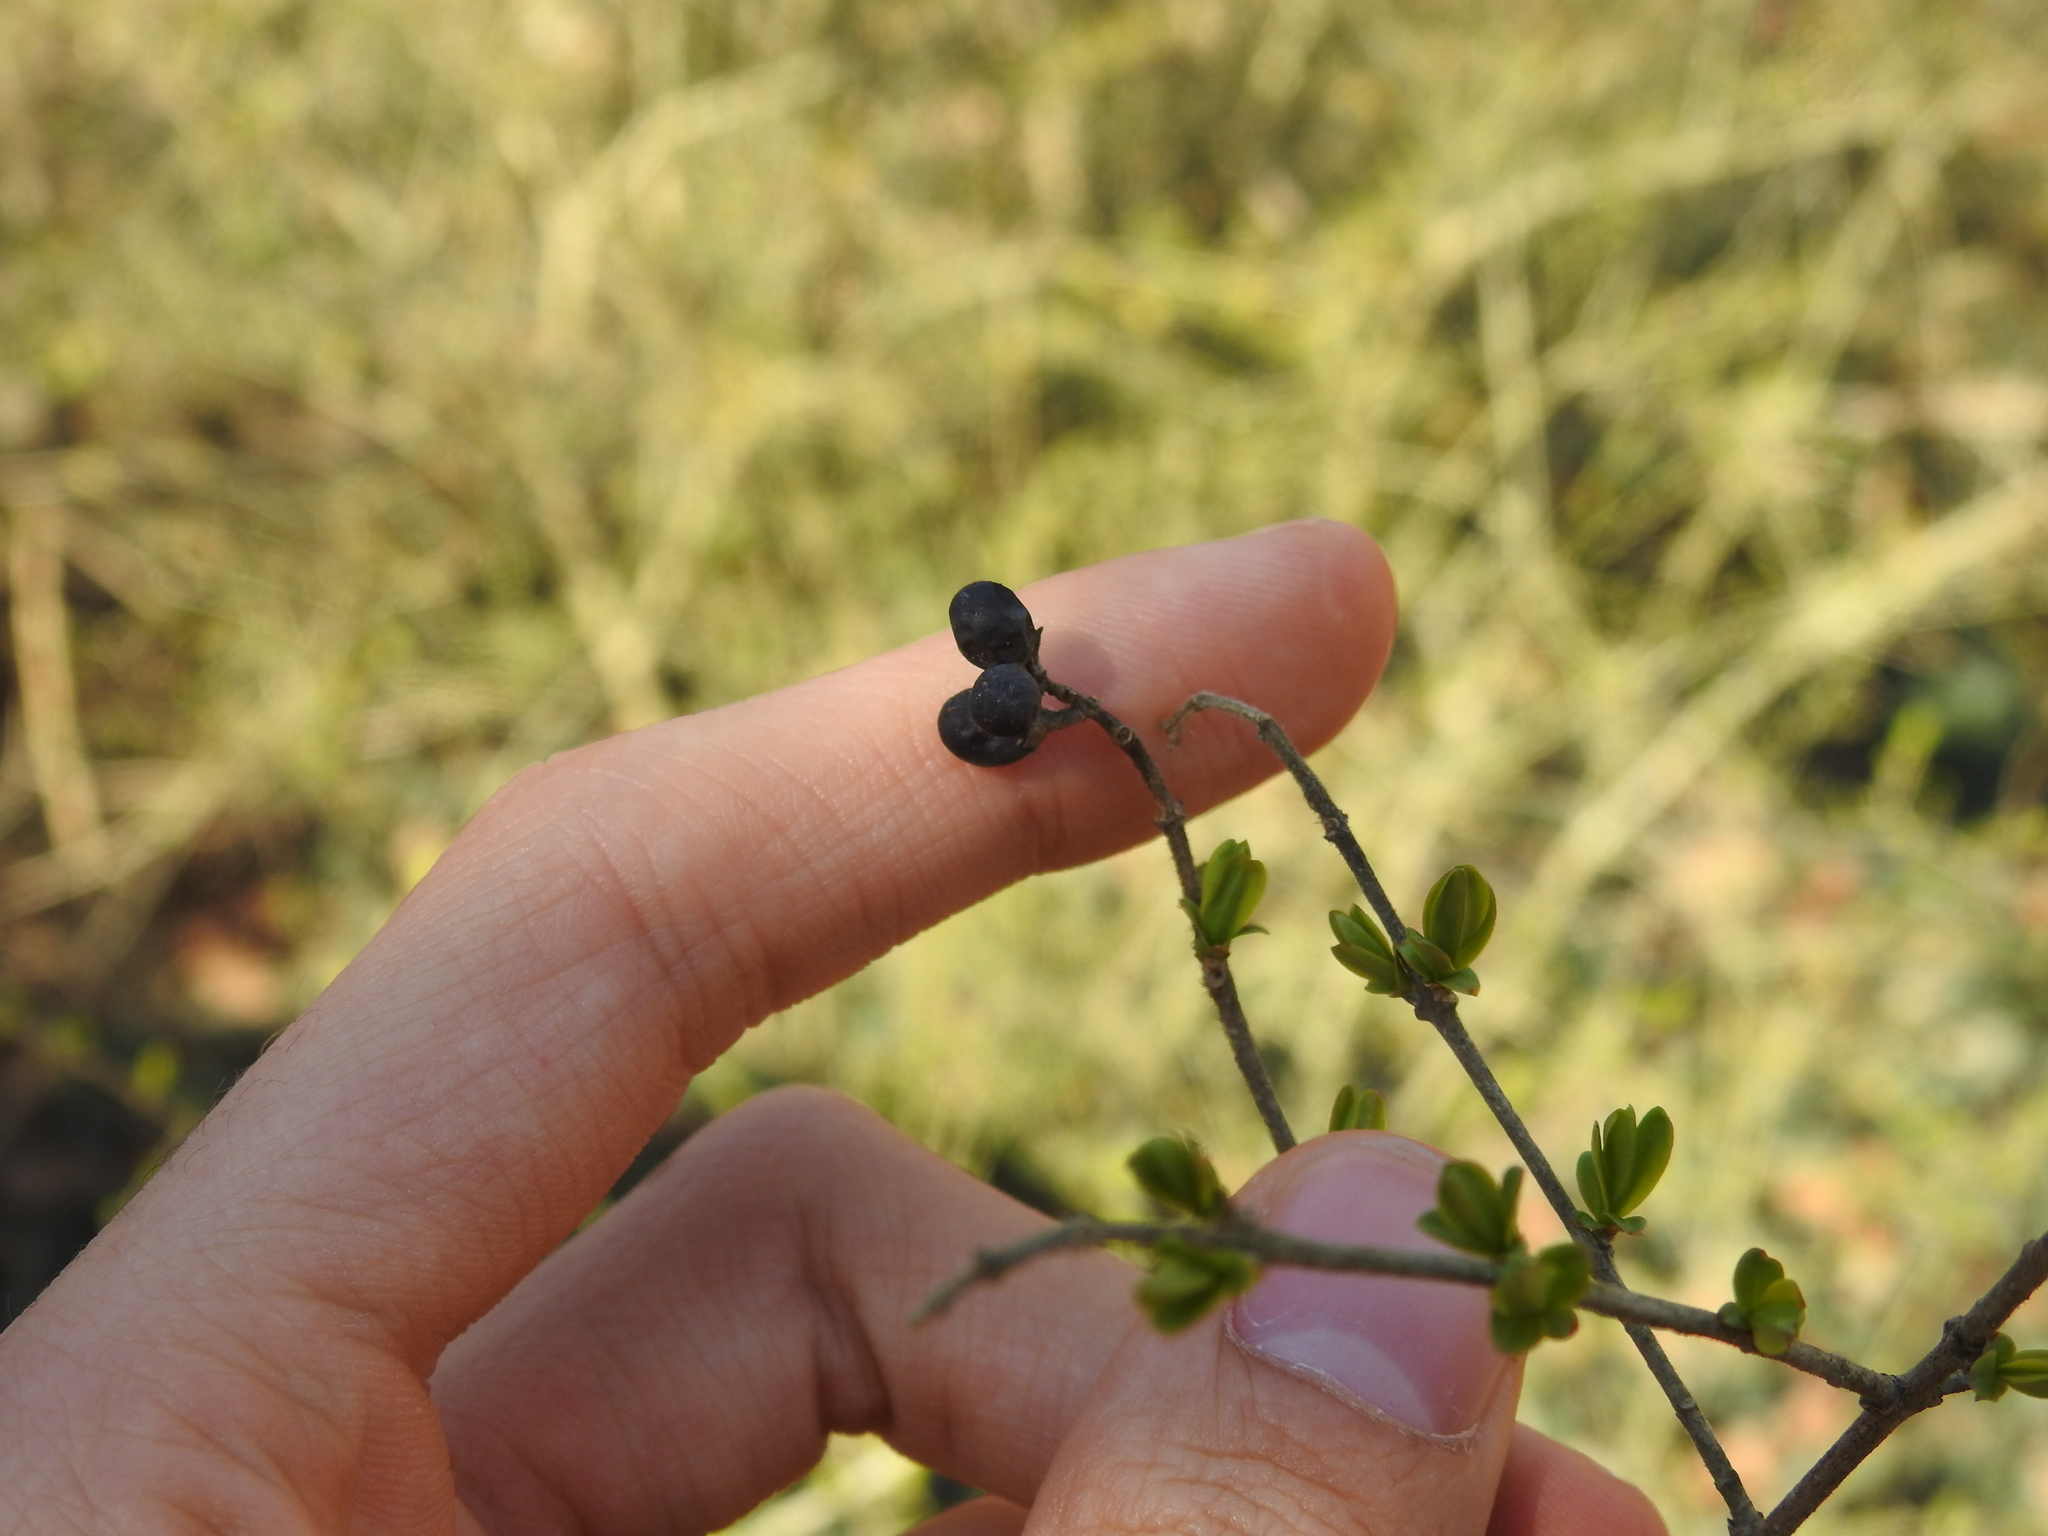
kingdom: Plantae
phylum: Tracheophyta
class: Magnoliopsida
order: Lamiales
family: Oleaceae
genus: Ligustrum
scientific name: Ligustrum obtusifolium
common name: Border privet
